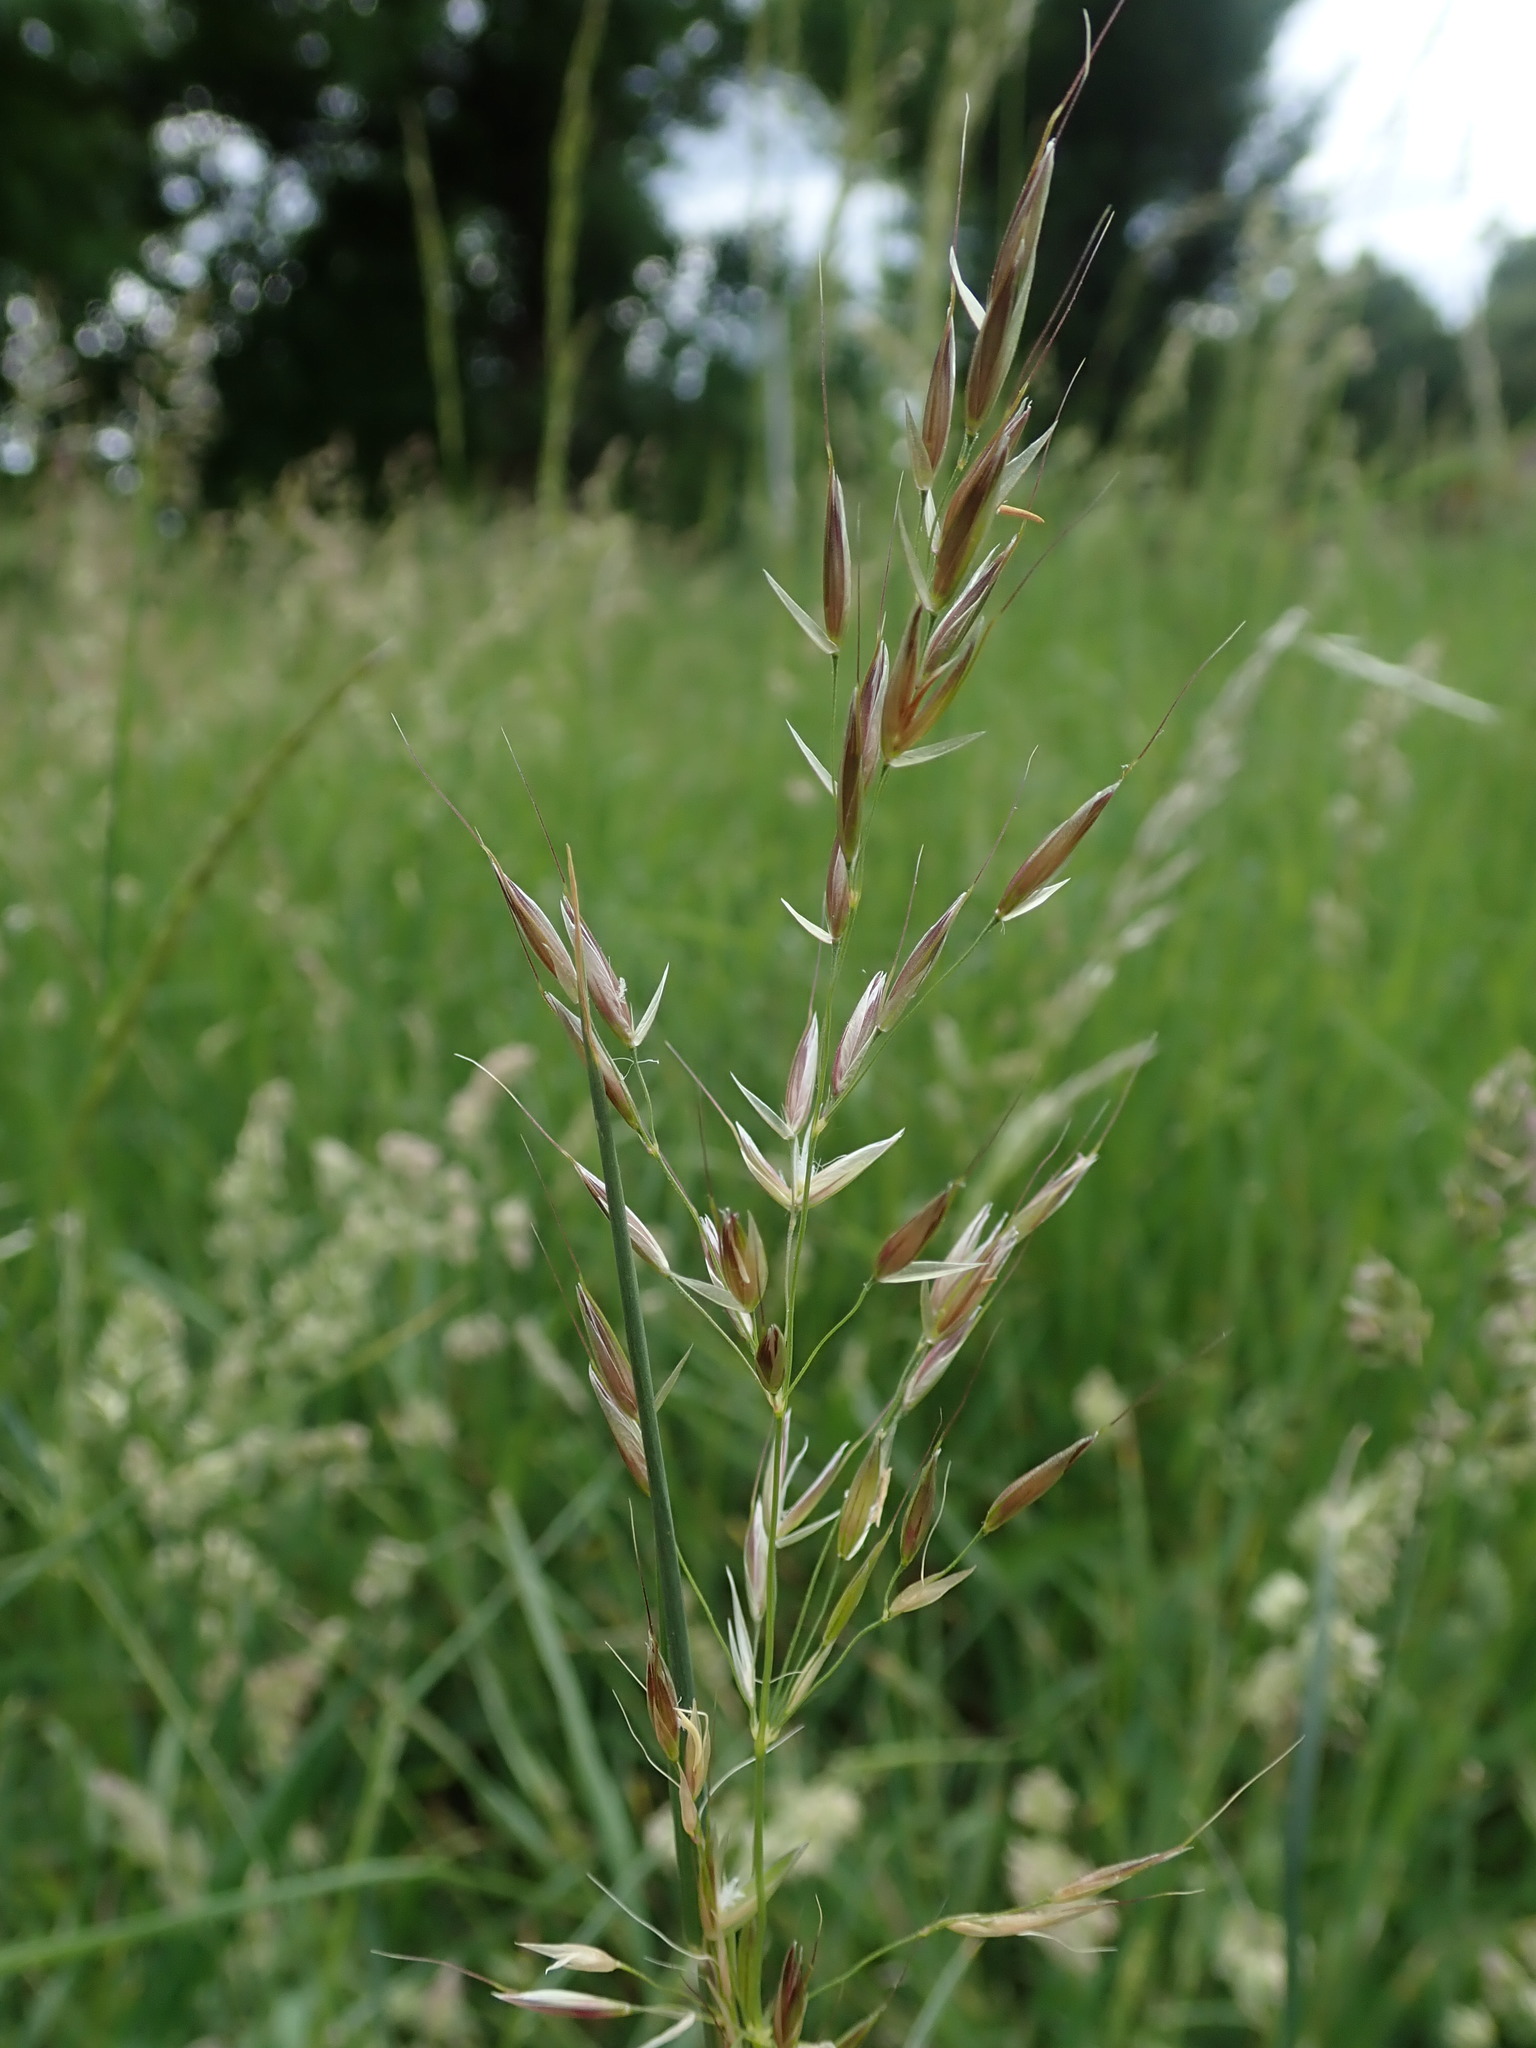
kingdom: Plantae
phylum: Tracheophyta
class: Liliopsida
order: Poales
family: Poaceae
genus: Arrhenatherum
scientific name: Arrhenatherum elatius
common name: Tall oatgrass
